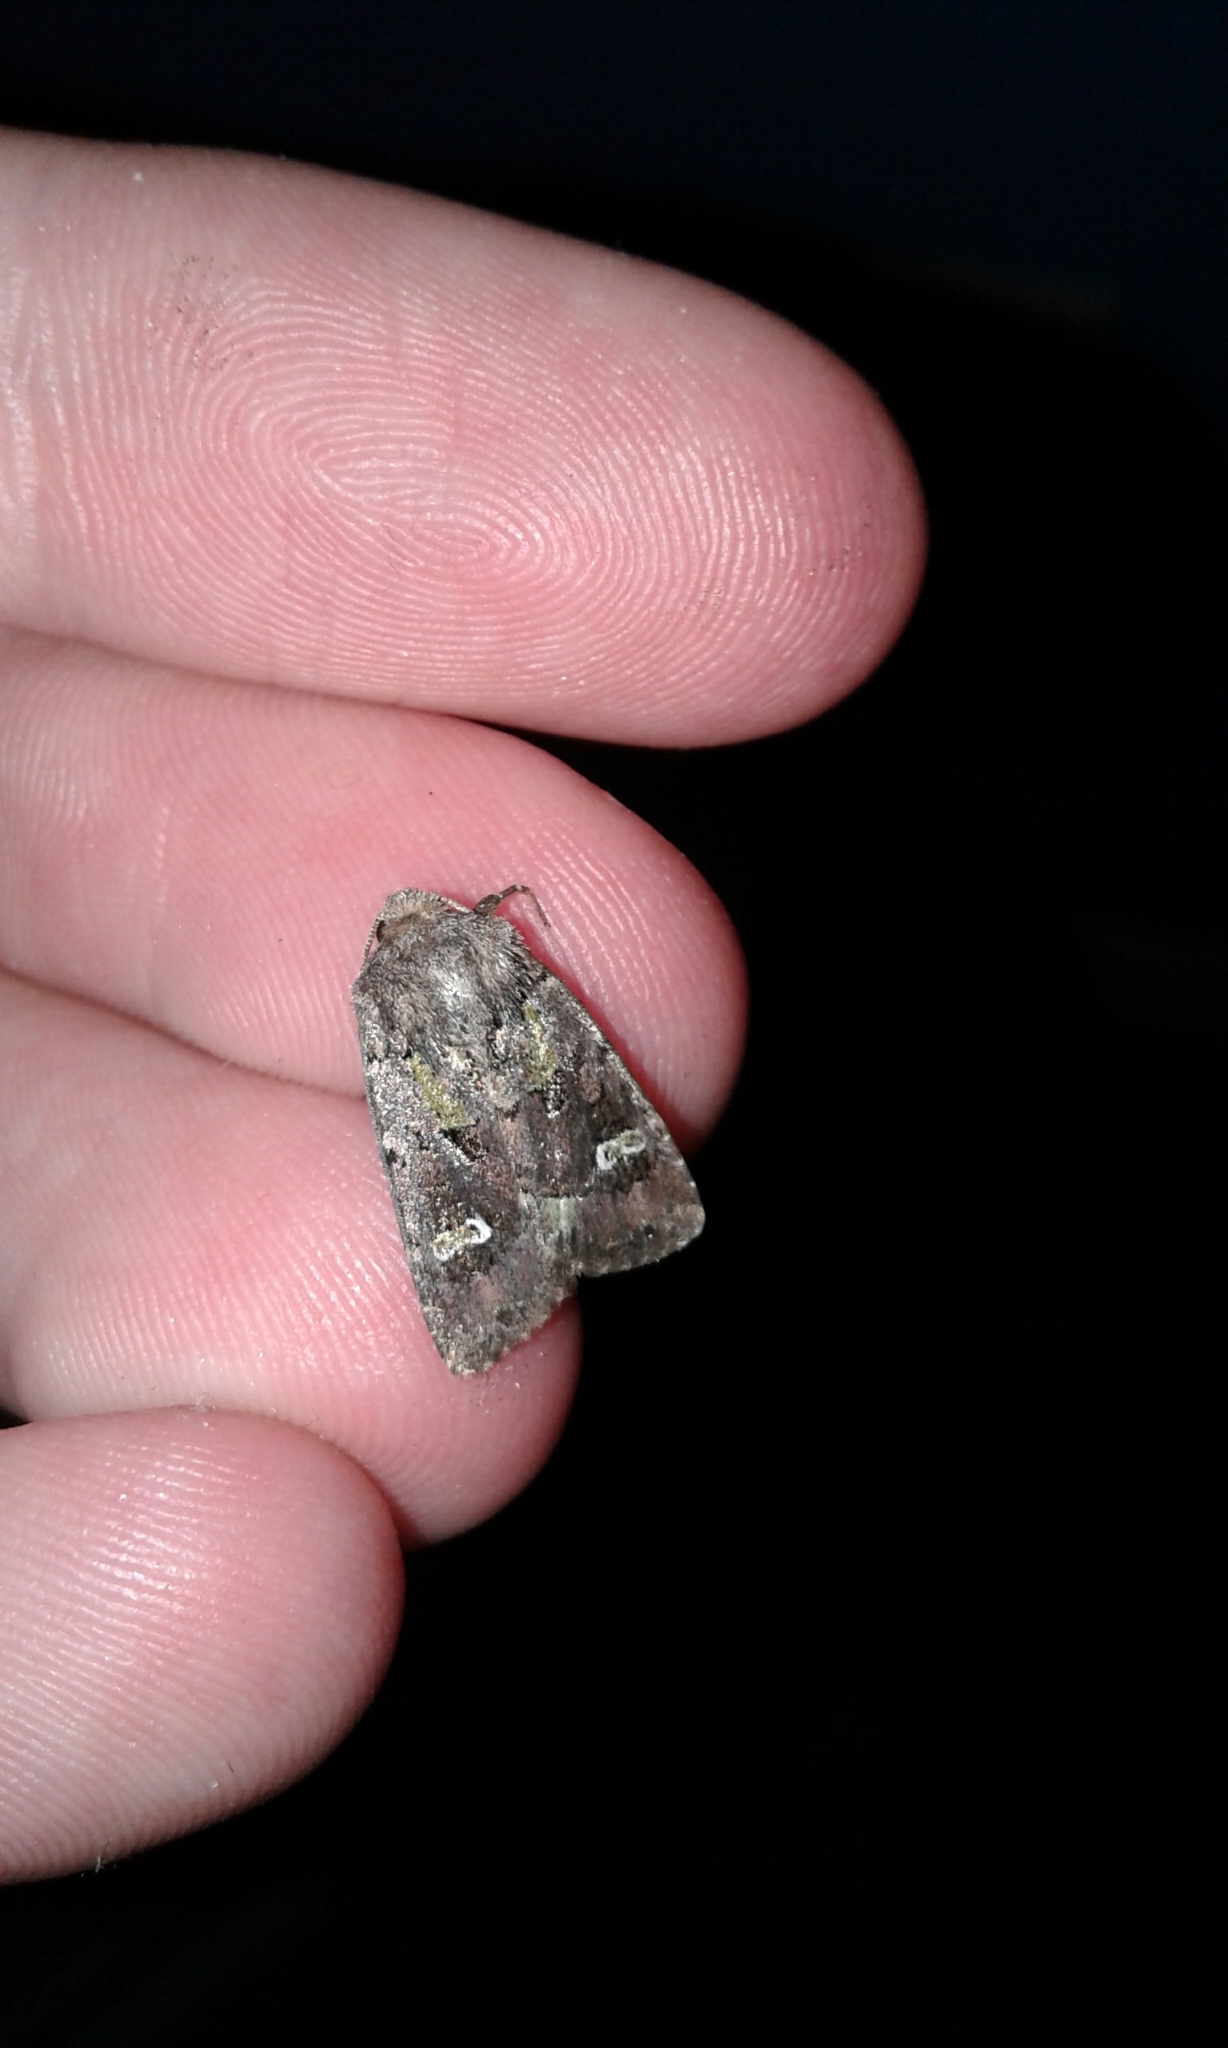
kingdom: Animalia
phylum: Arthropoda
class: Insecta
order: Lepidoptera
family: Noctuidae
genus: Lacinipolia
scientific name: Lacinipolia renigera
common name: Kidney-spotted minor
